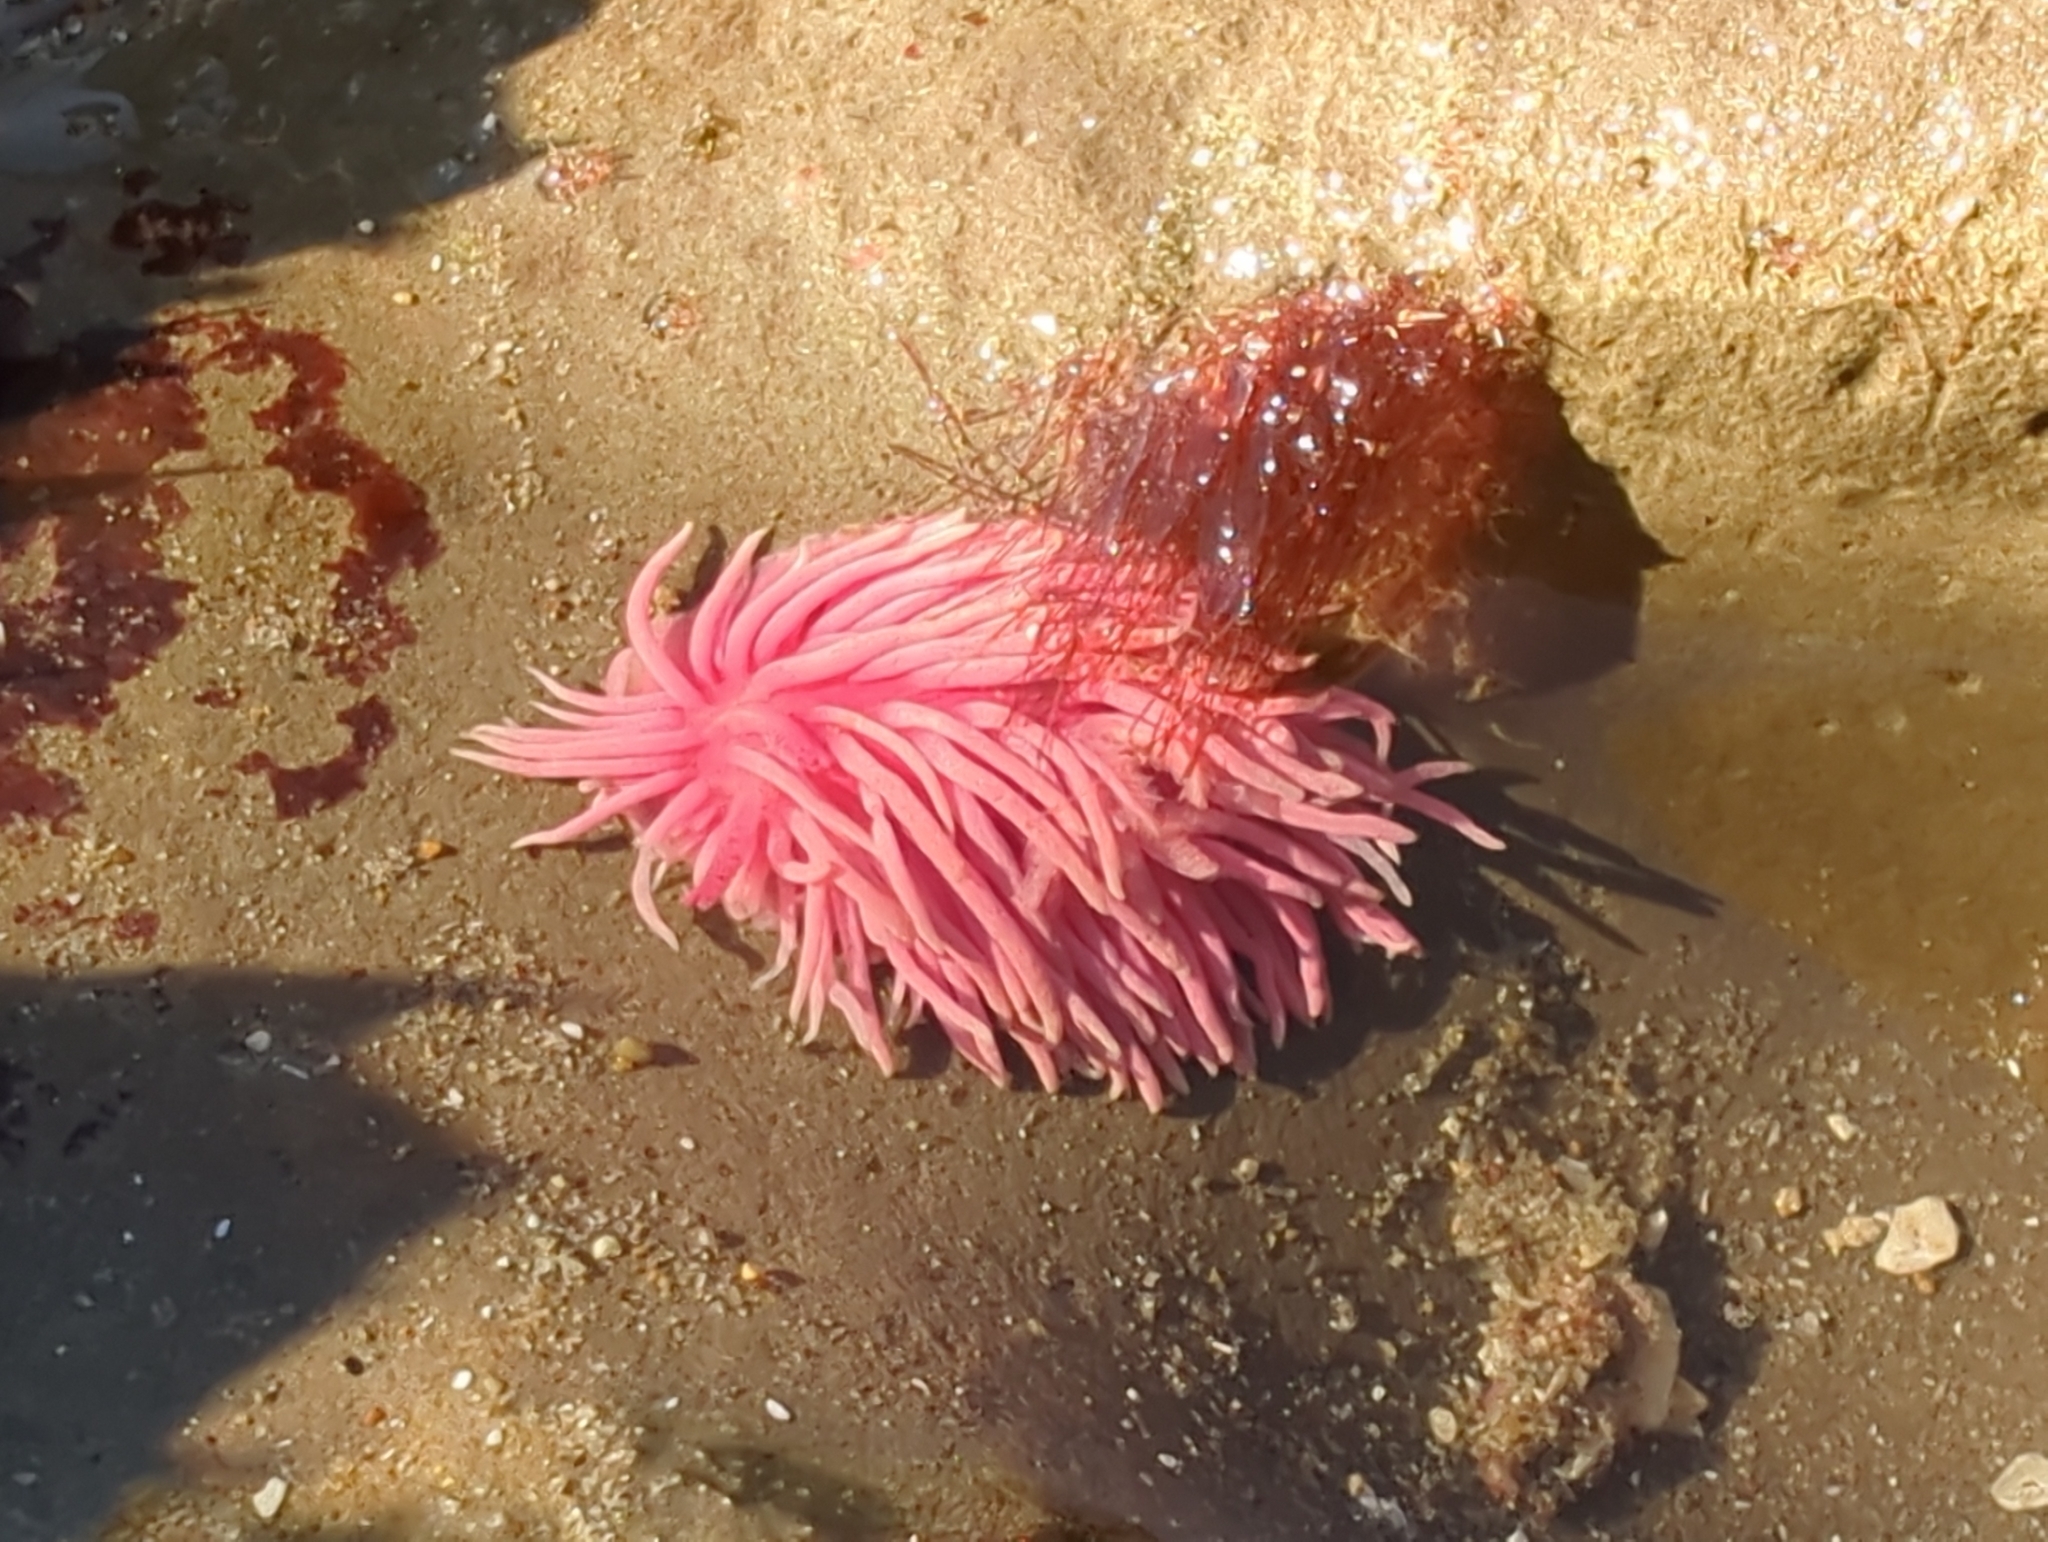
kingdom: Animalia
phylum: Mollusca
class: Gastropoda
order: Nudibranchia
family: Goniodorididae
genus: Okenia
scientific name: Okenia
